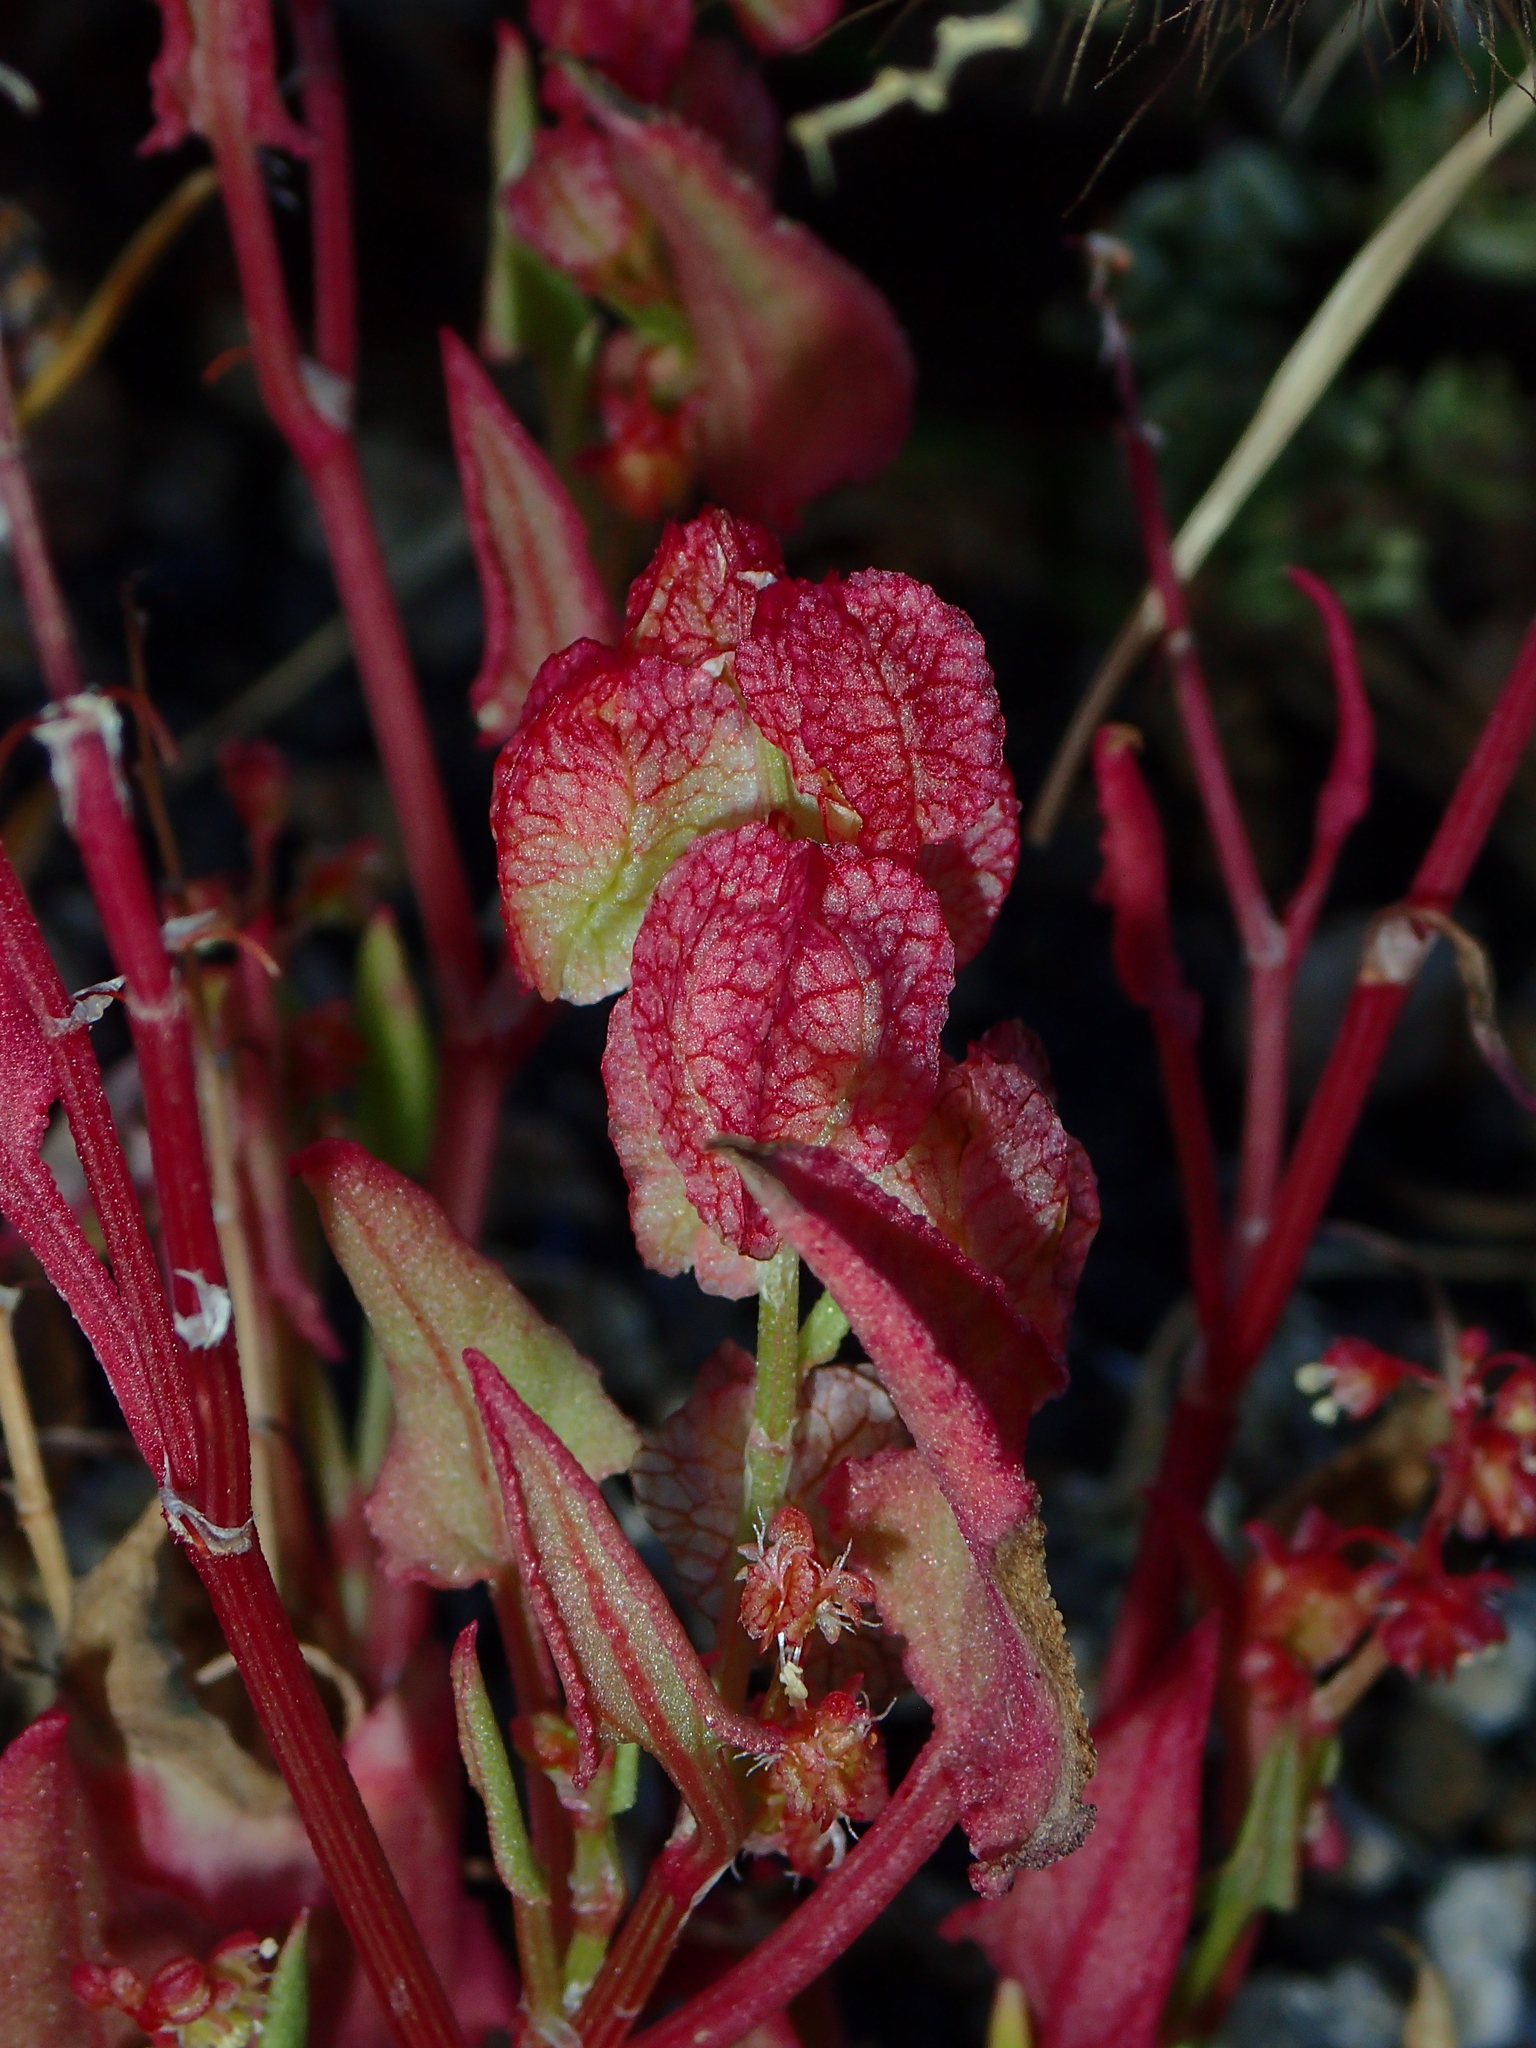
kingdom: Plantae
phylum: Tracheophyta
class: Magnoliopsida
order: Caryophyllales
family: Polygonaceae
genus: Rumex
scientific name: Rumex vesicarius
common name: Bladder dock
